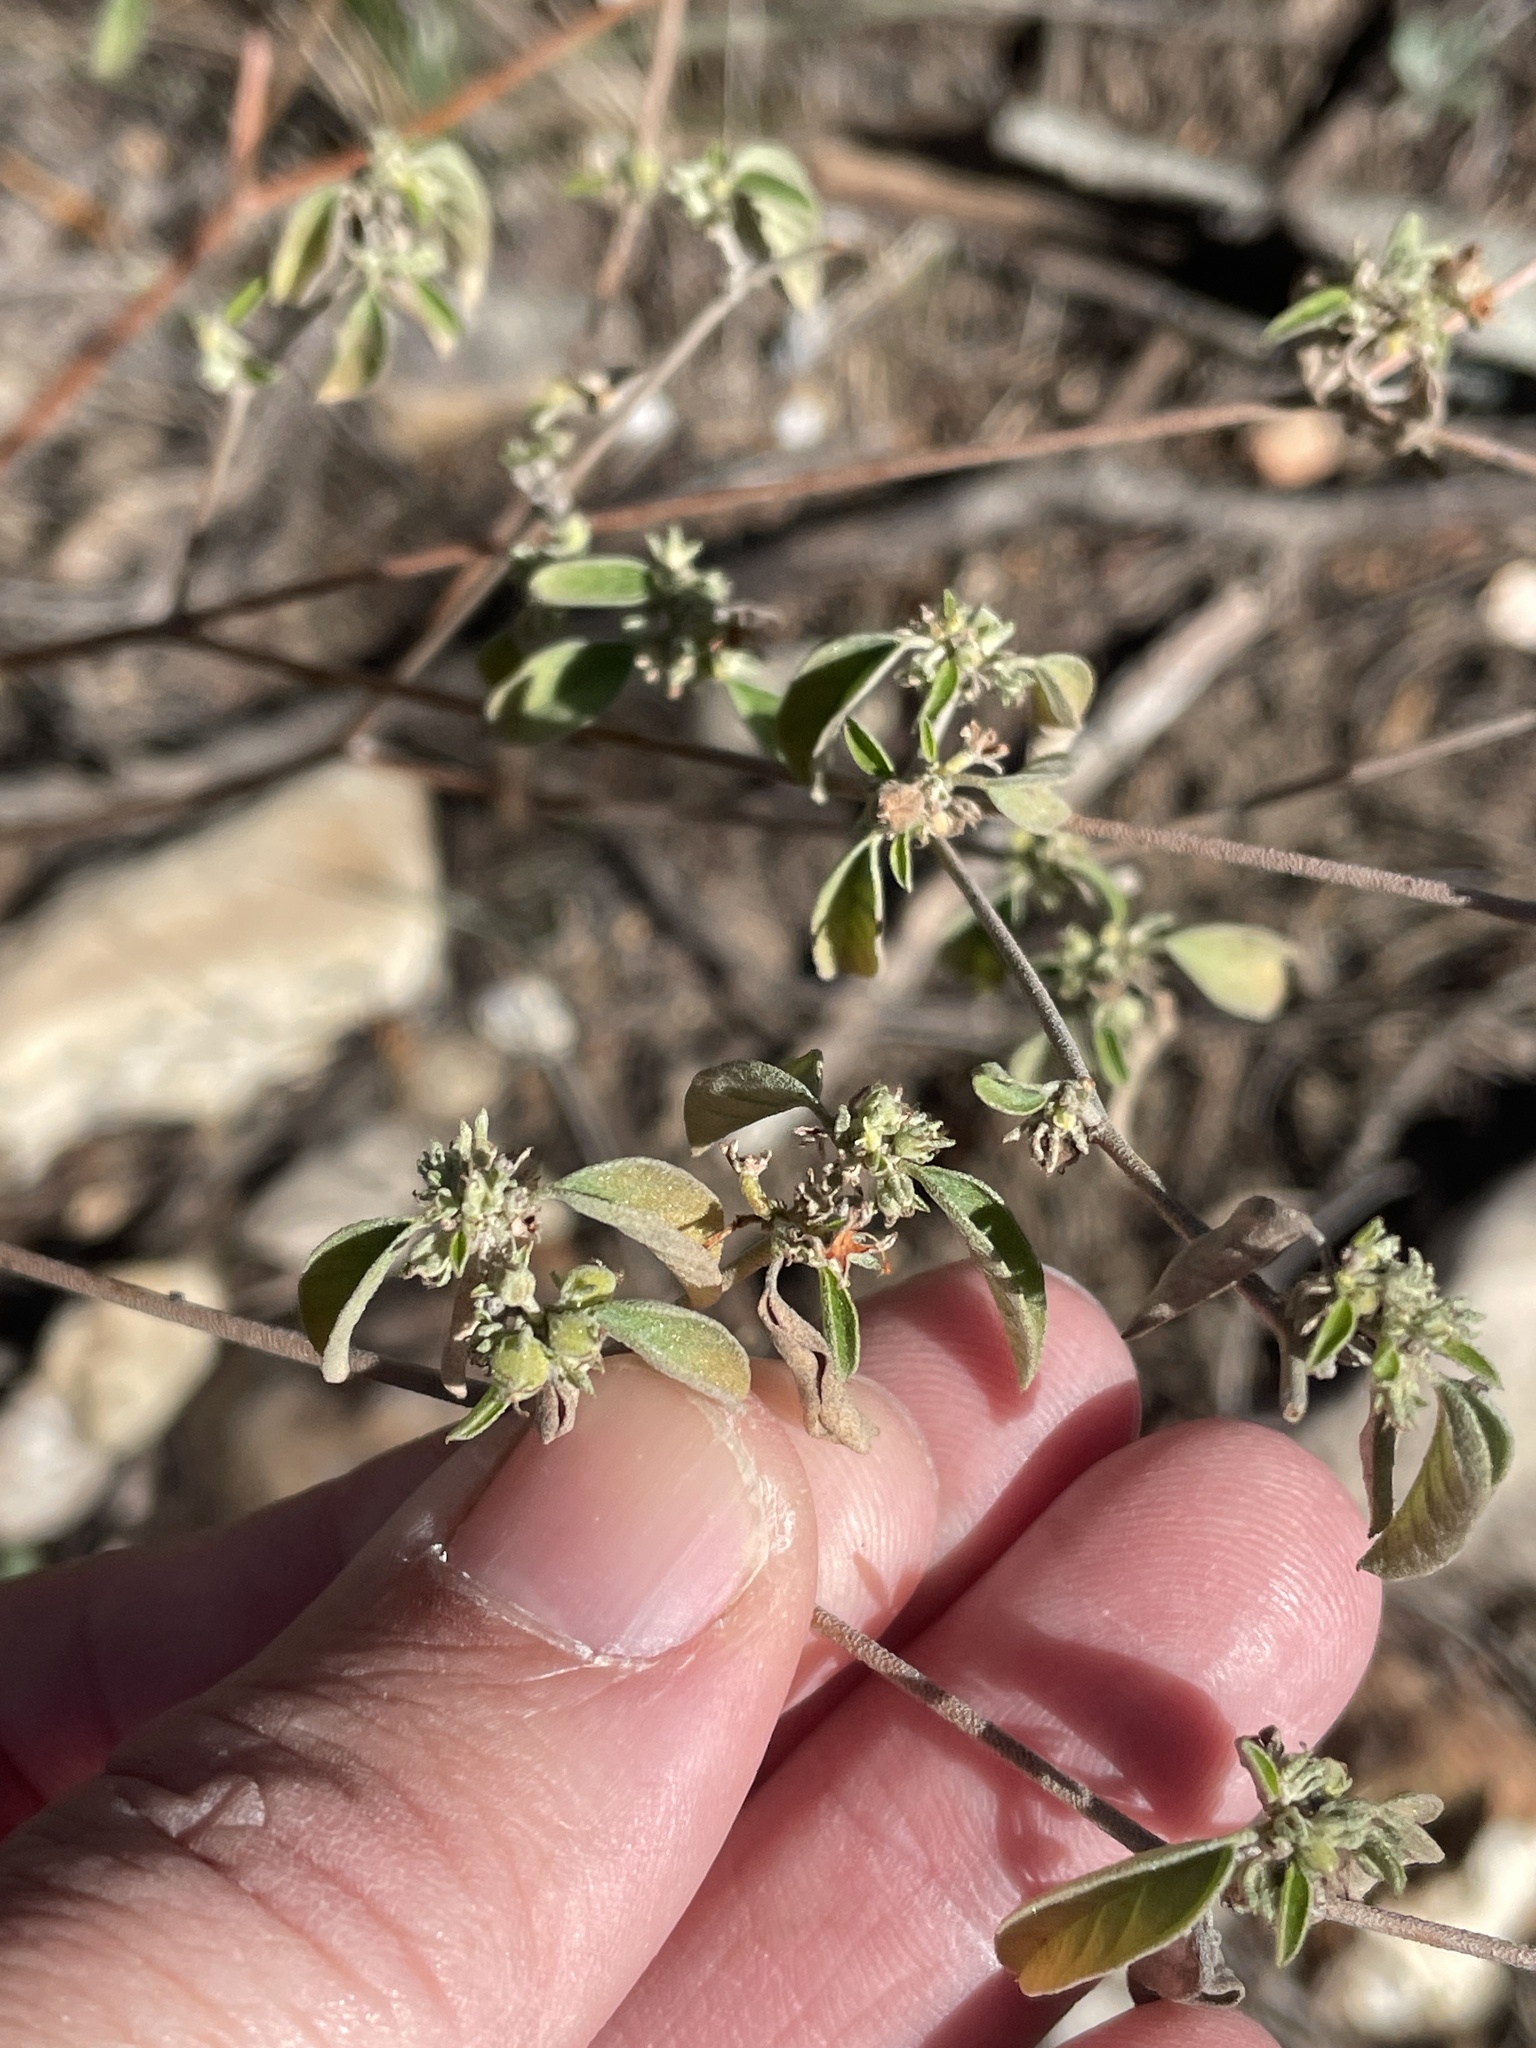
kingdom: Plantae
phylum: Tracheophyta
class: Magnoliopsida
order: Malpighiales
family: Euphorbiaceae
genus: Croton
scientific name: Croton monanthogynus
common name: One-seed croton
